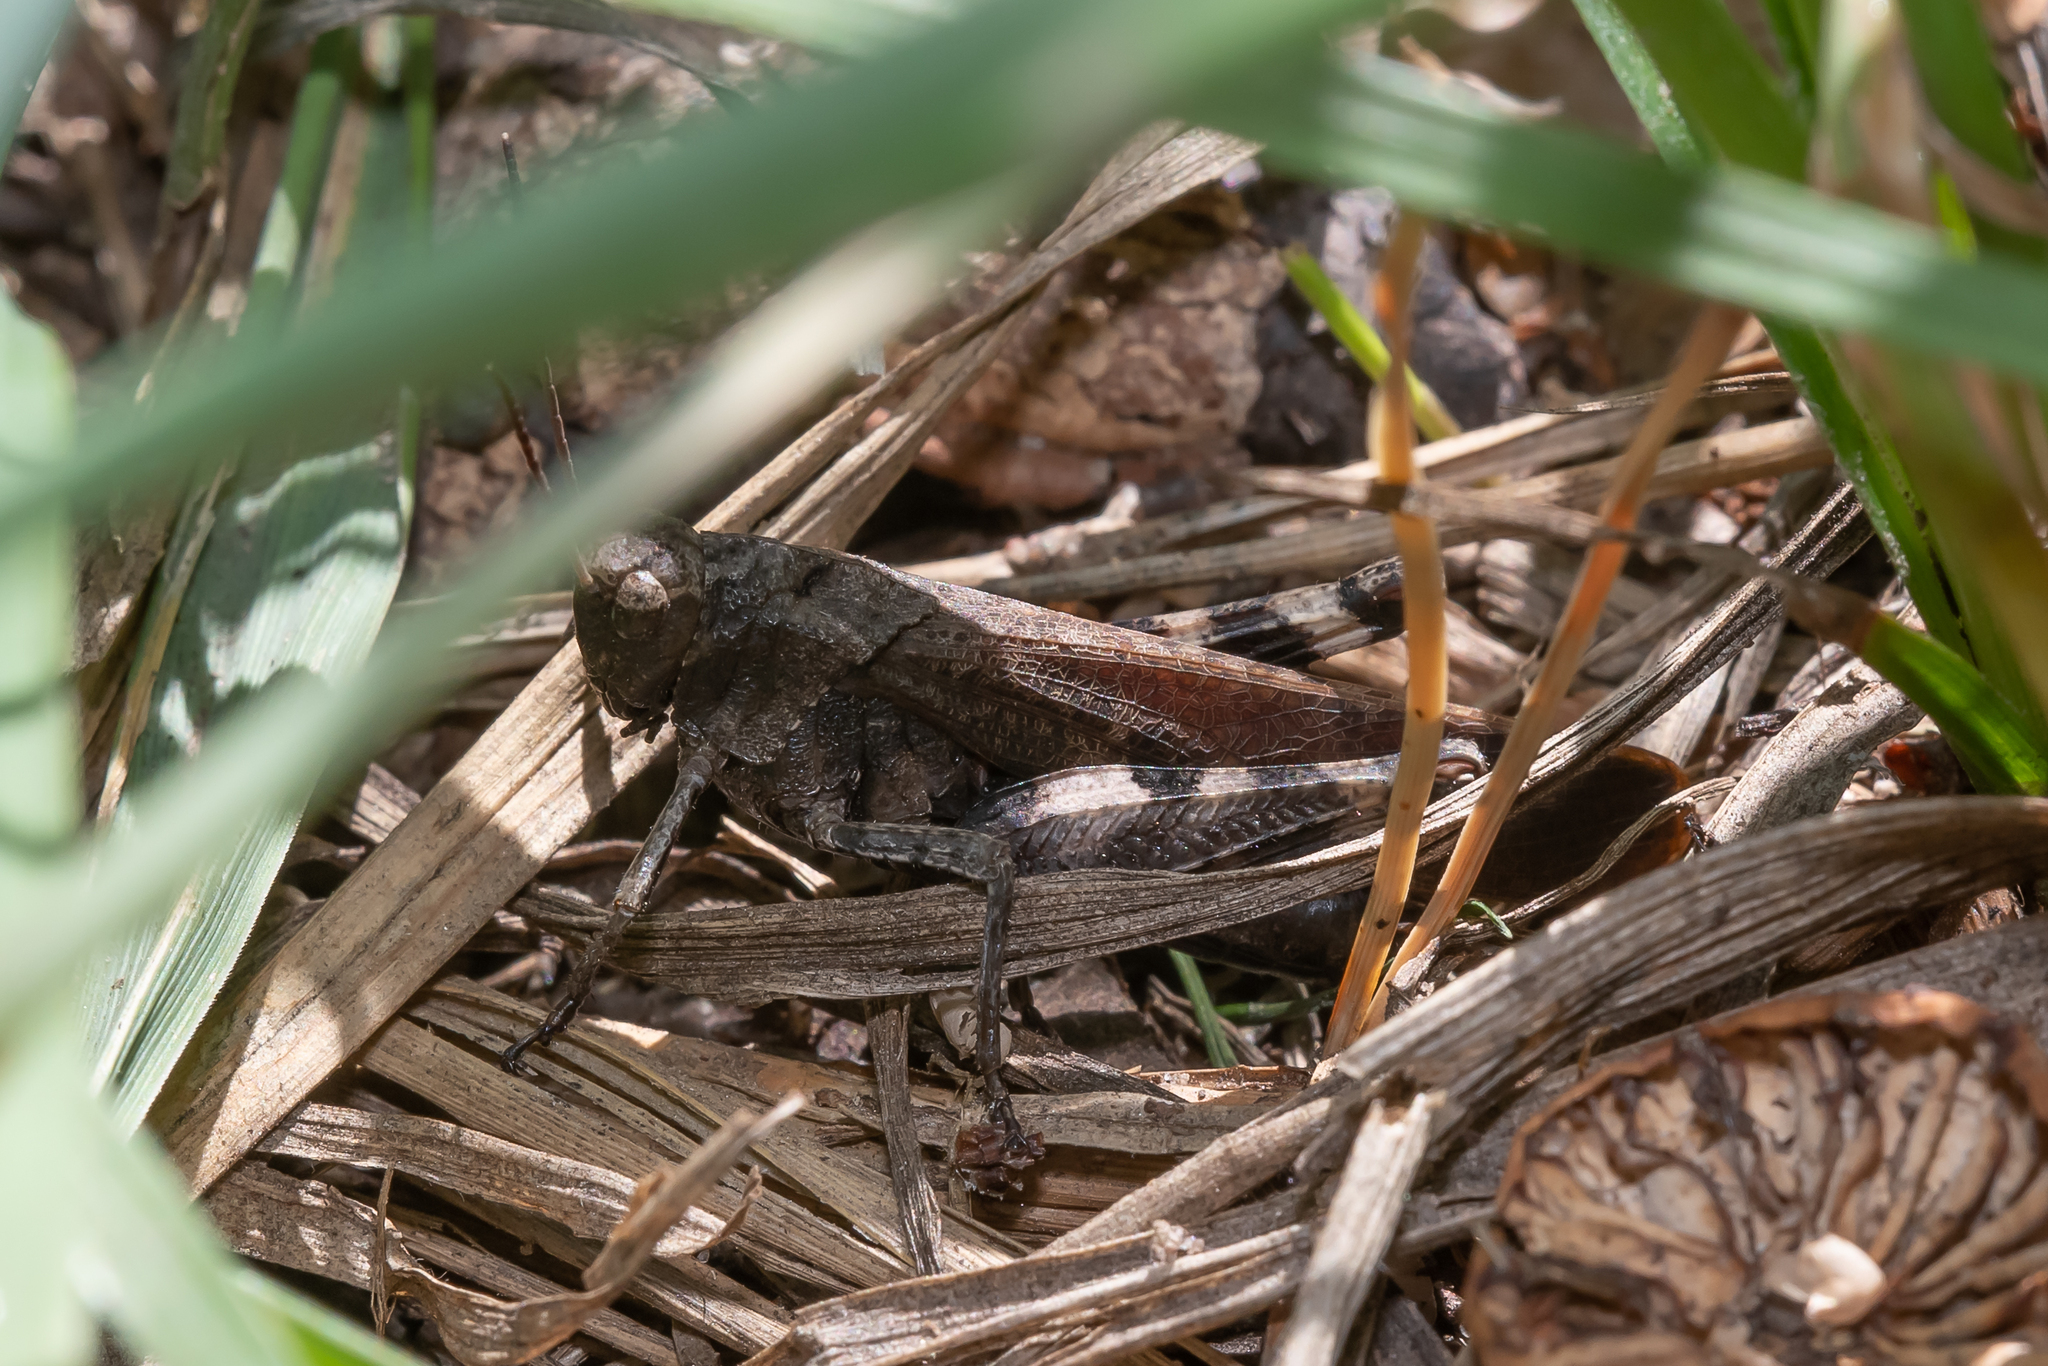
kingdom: Animalia
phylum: Arthropoda
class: Insecta
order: Orthoptera
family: Acrididae
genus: Psophus
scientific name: Psophus stridulus
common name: Rattle grasshopper
